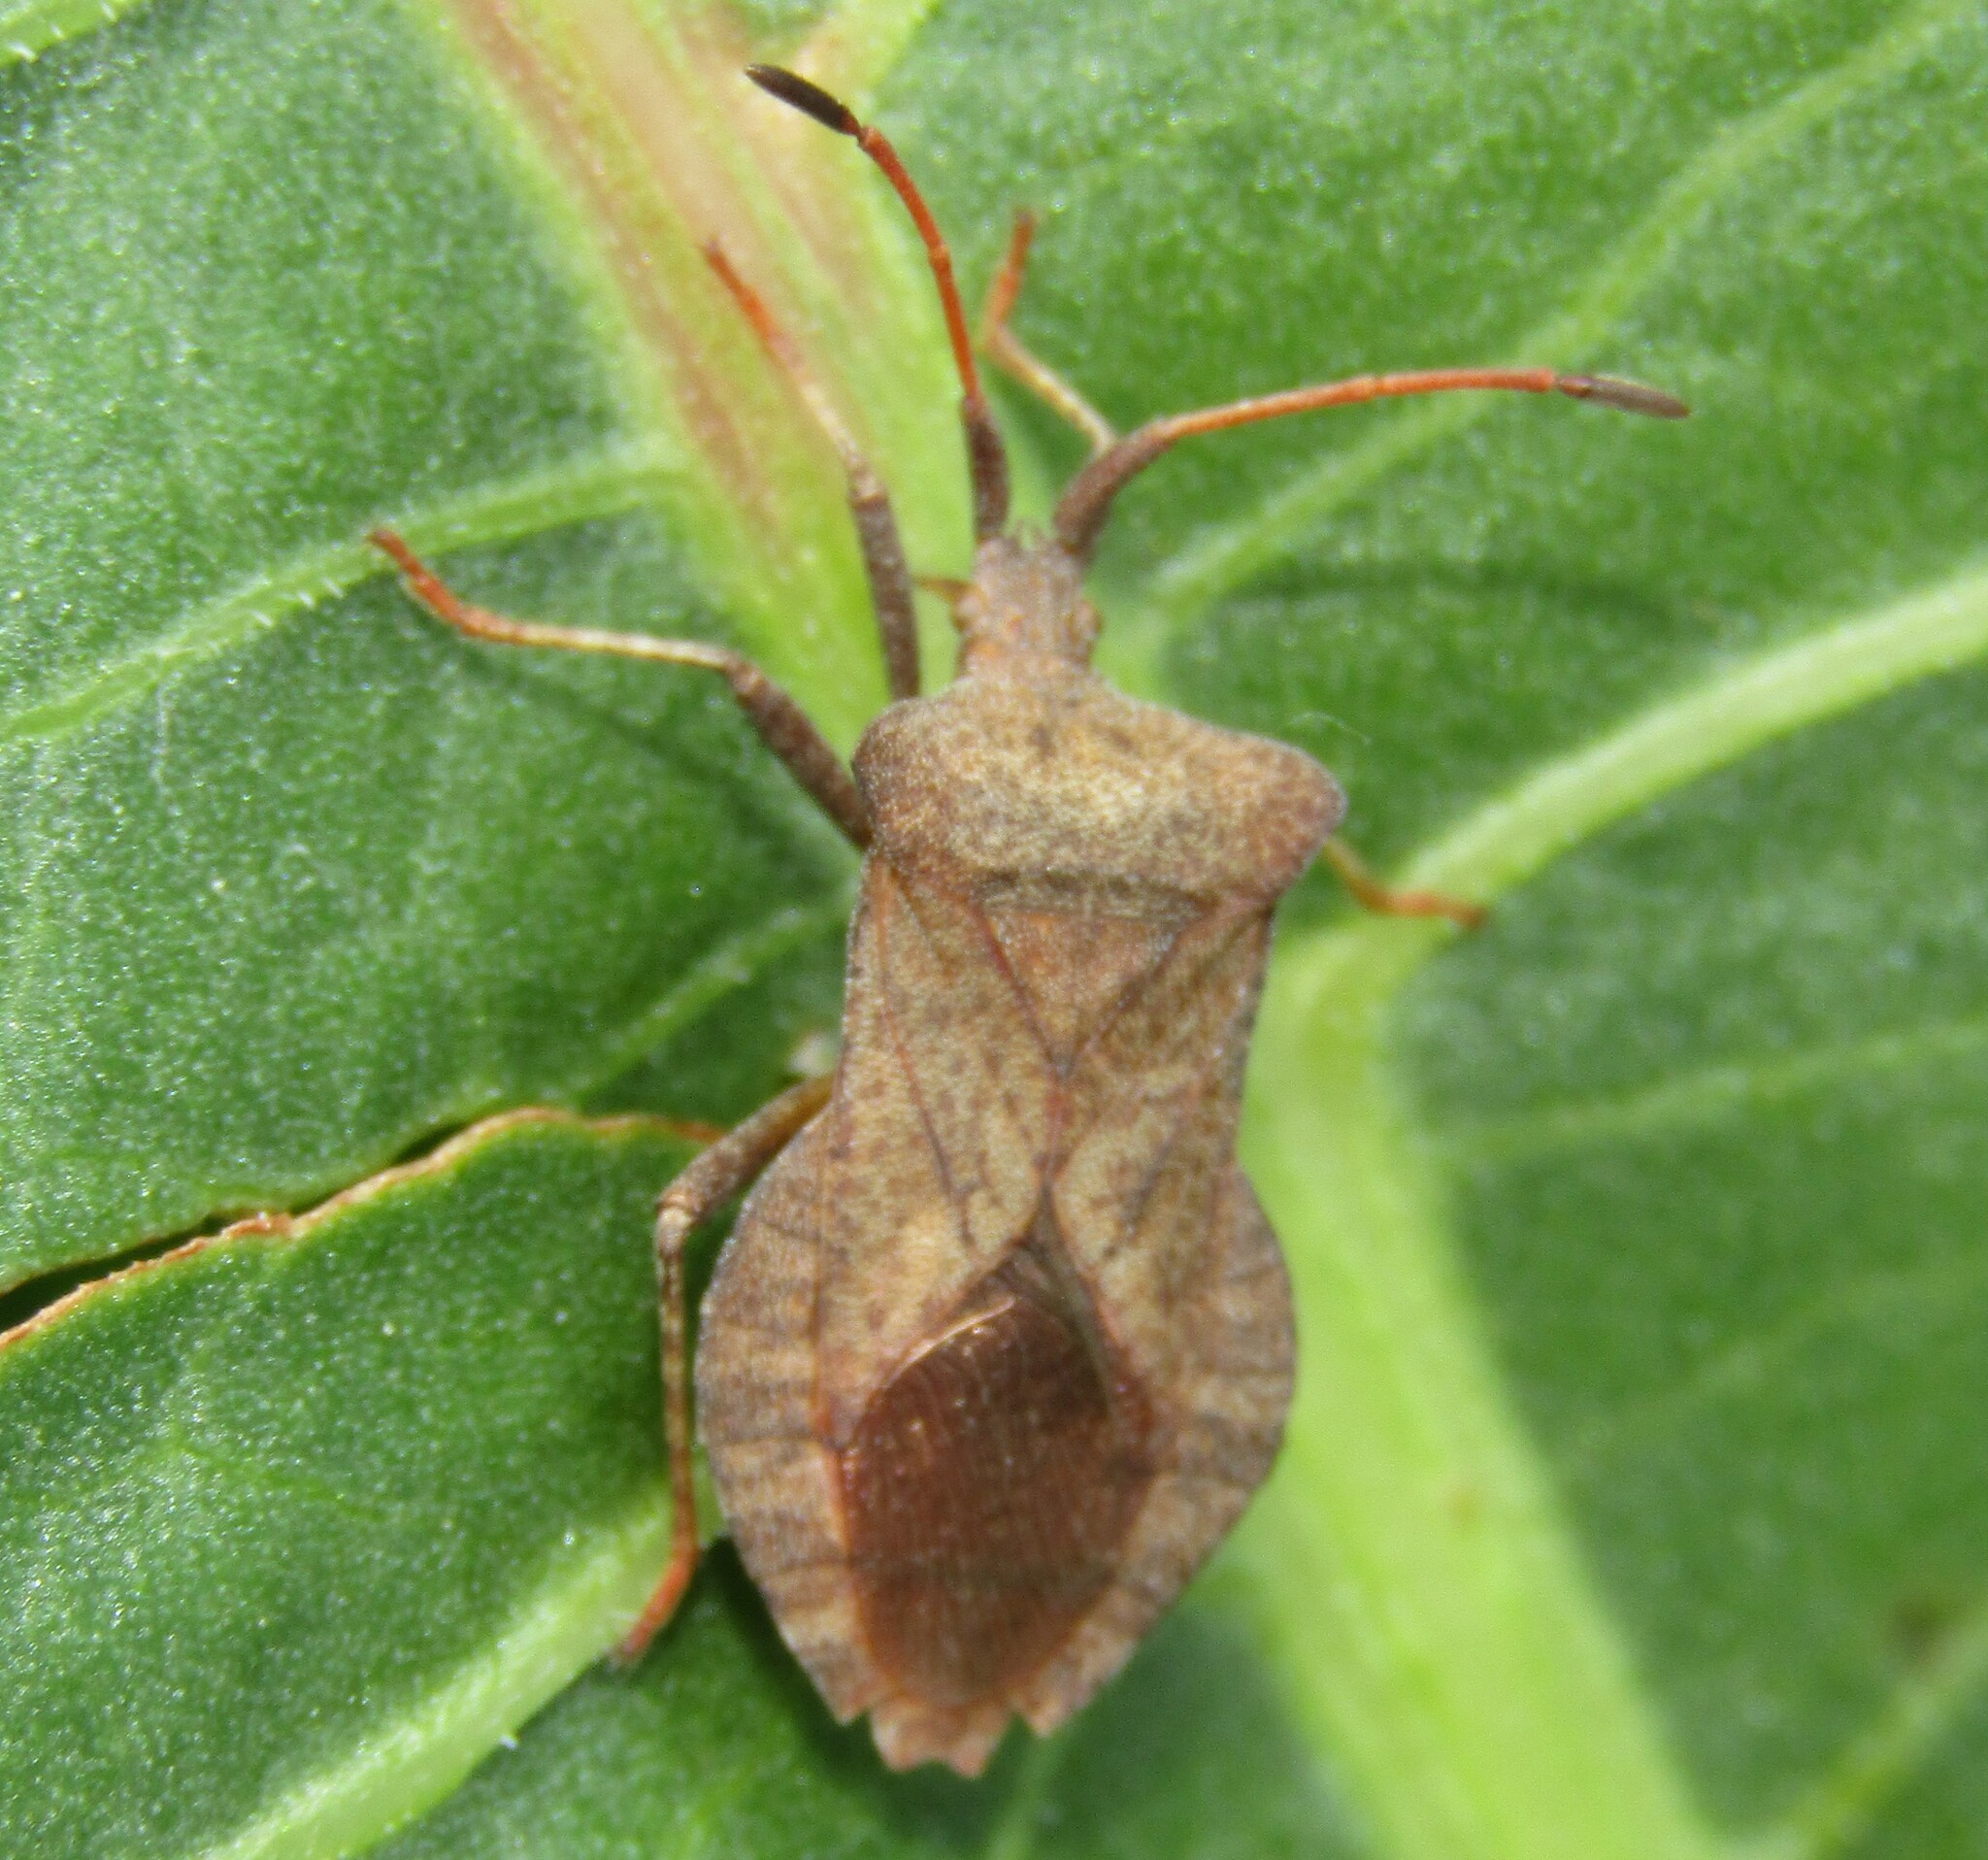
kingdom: Animalia
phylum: Arthropoda
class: Insecta
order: Hemiptera
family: Coreidae
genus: Coreus
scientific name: Coreus marginatus
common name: Dock bug
